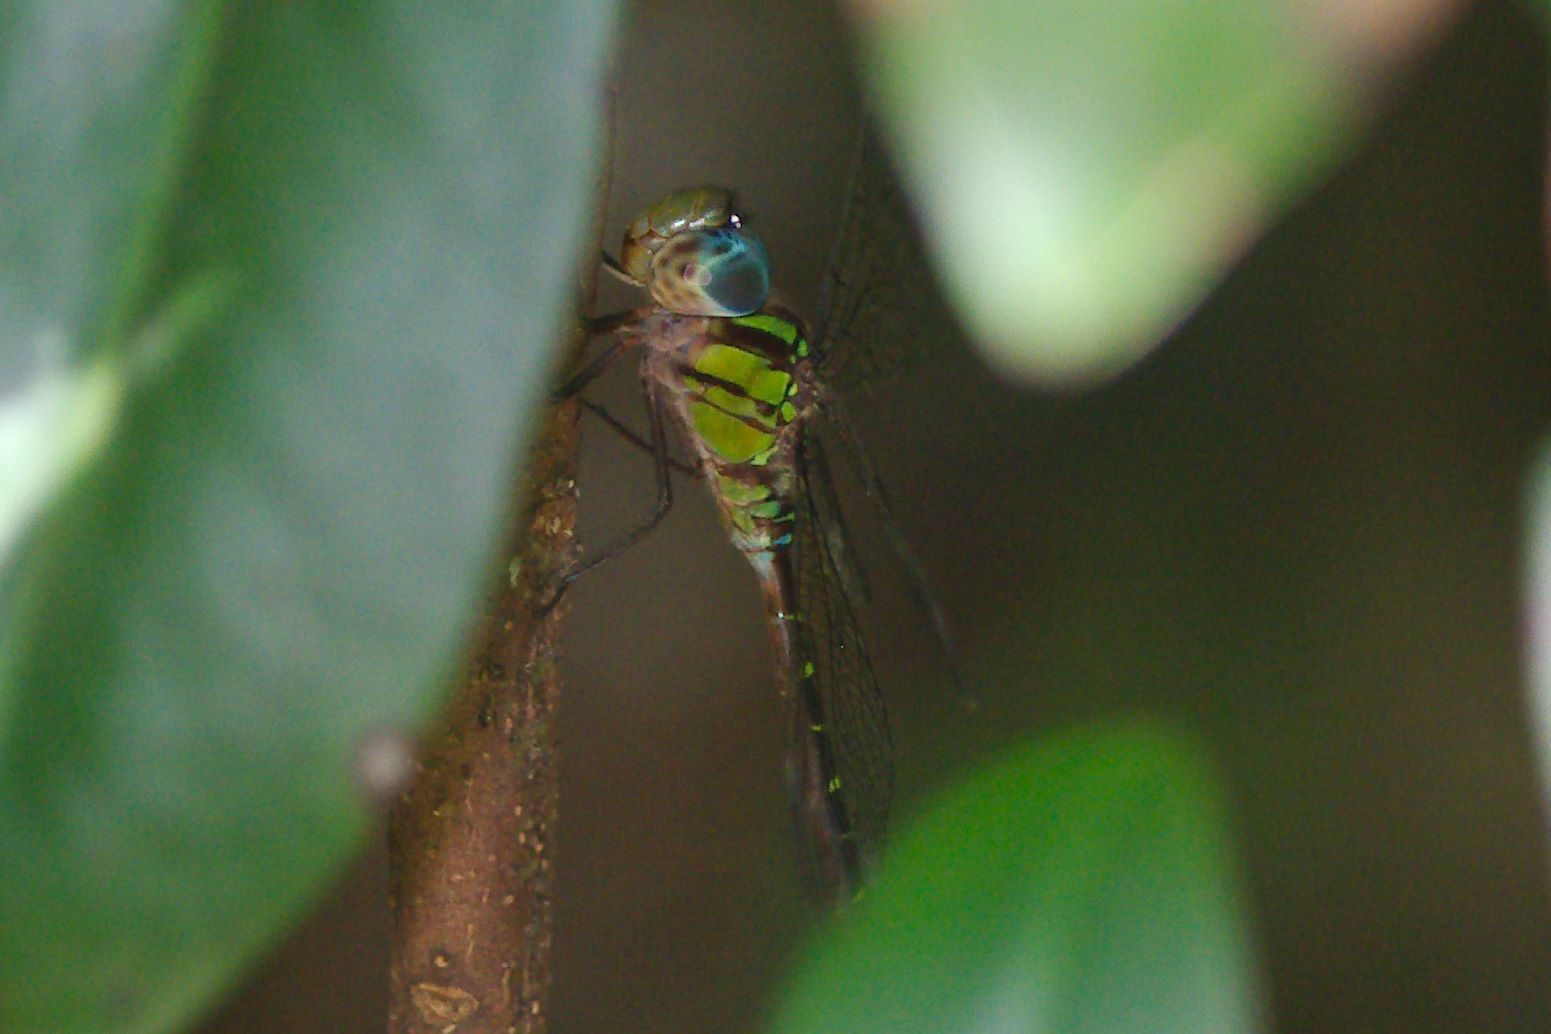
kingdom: Animalia
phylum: Arthropoda
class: Insecta
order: Odonata
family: Aeshnidae
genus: Triacanthagyna
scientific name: Triacanthagyna trifida
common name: Phantom darner
